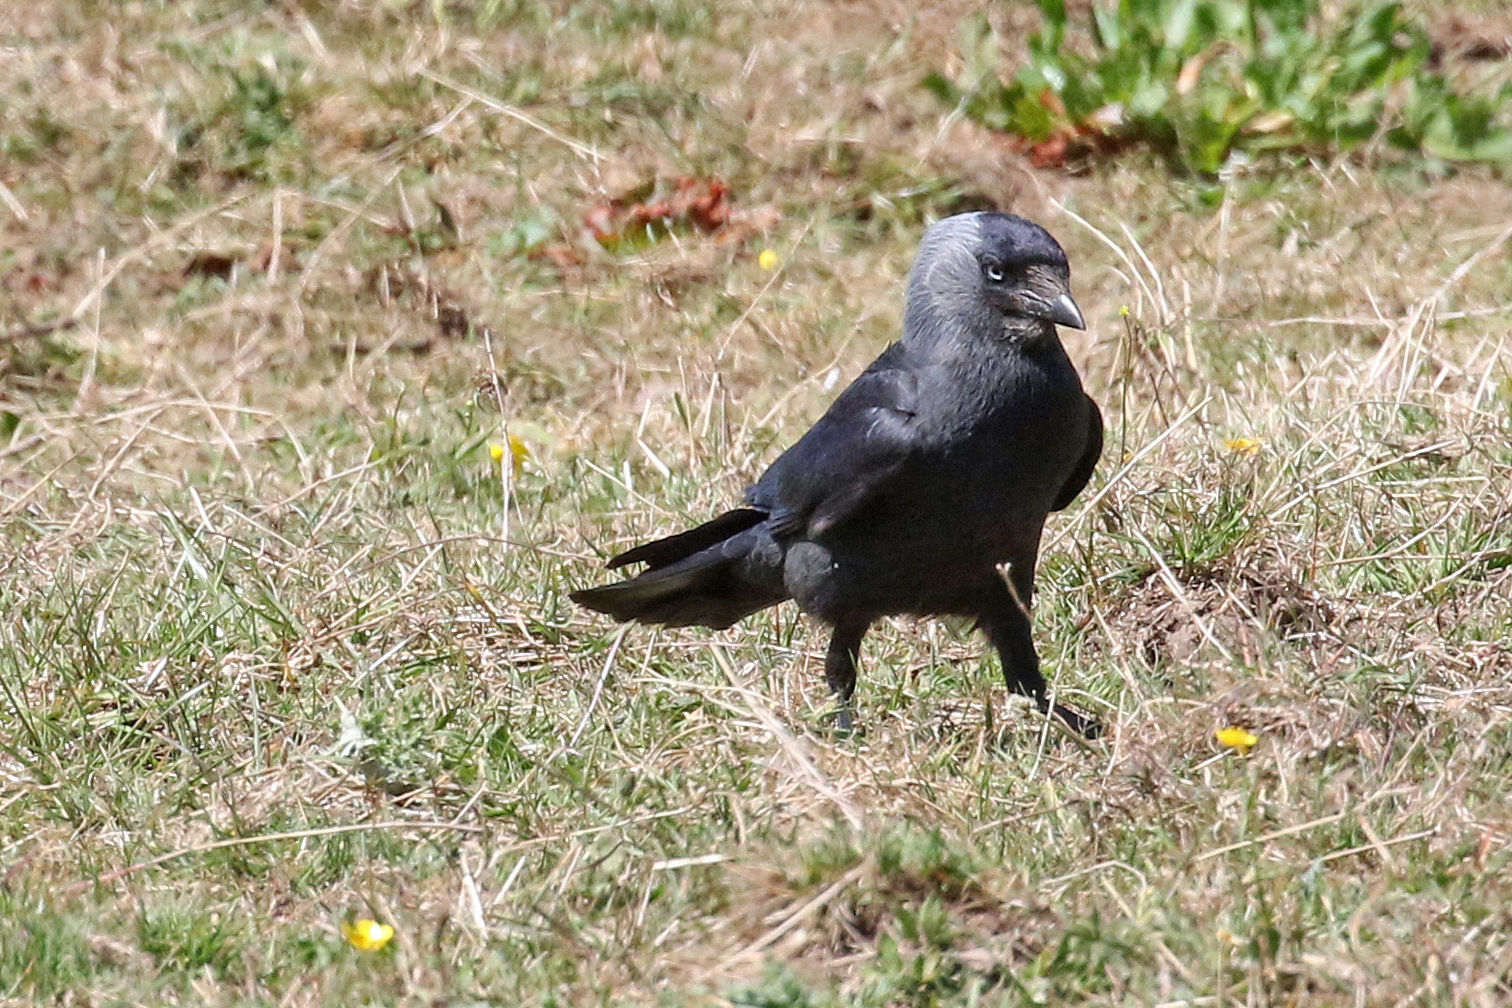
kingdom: Animalia
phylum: Chordata
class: Aves
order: Passeriformes
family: Corvidae
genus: Coloeus
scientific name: Coloeus monedula
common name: Western jackdaw
